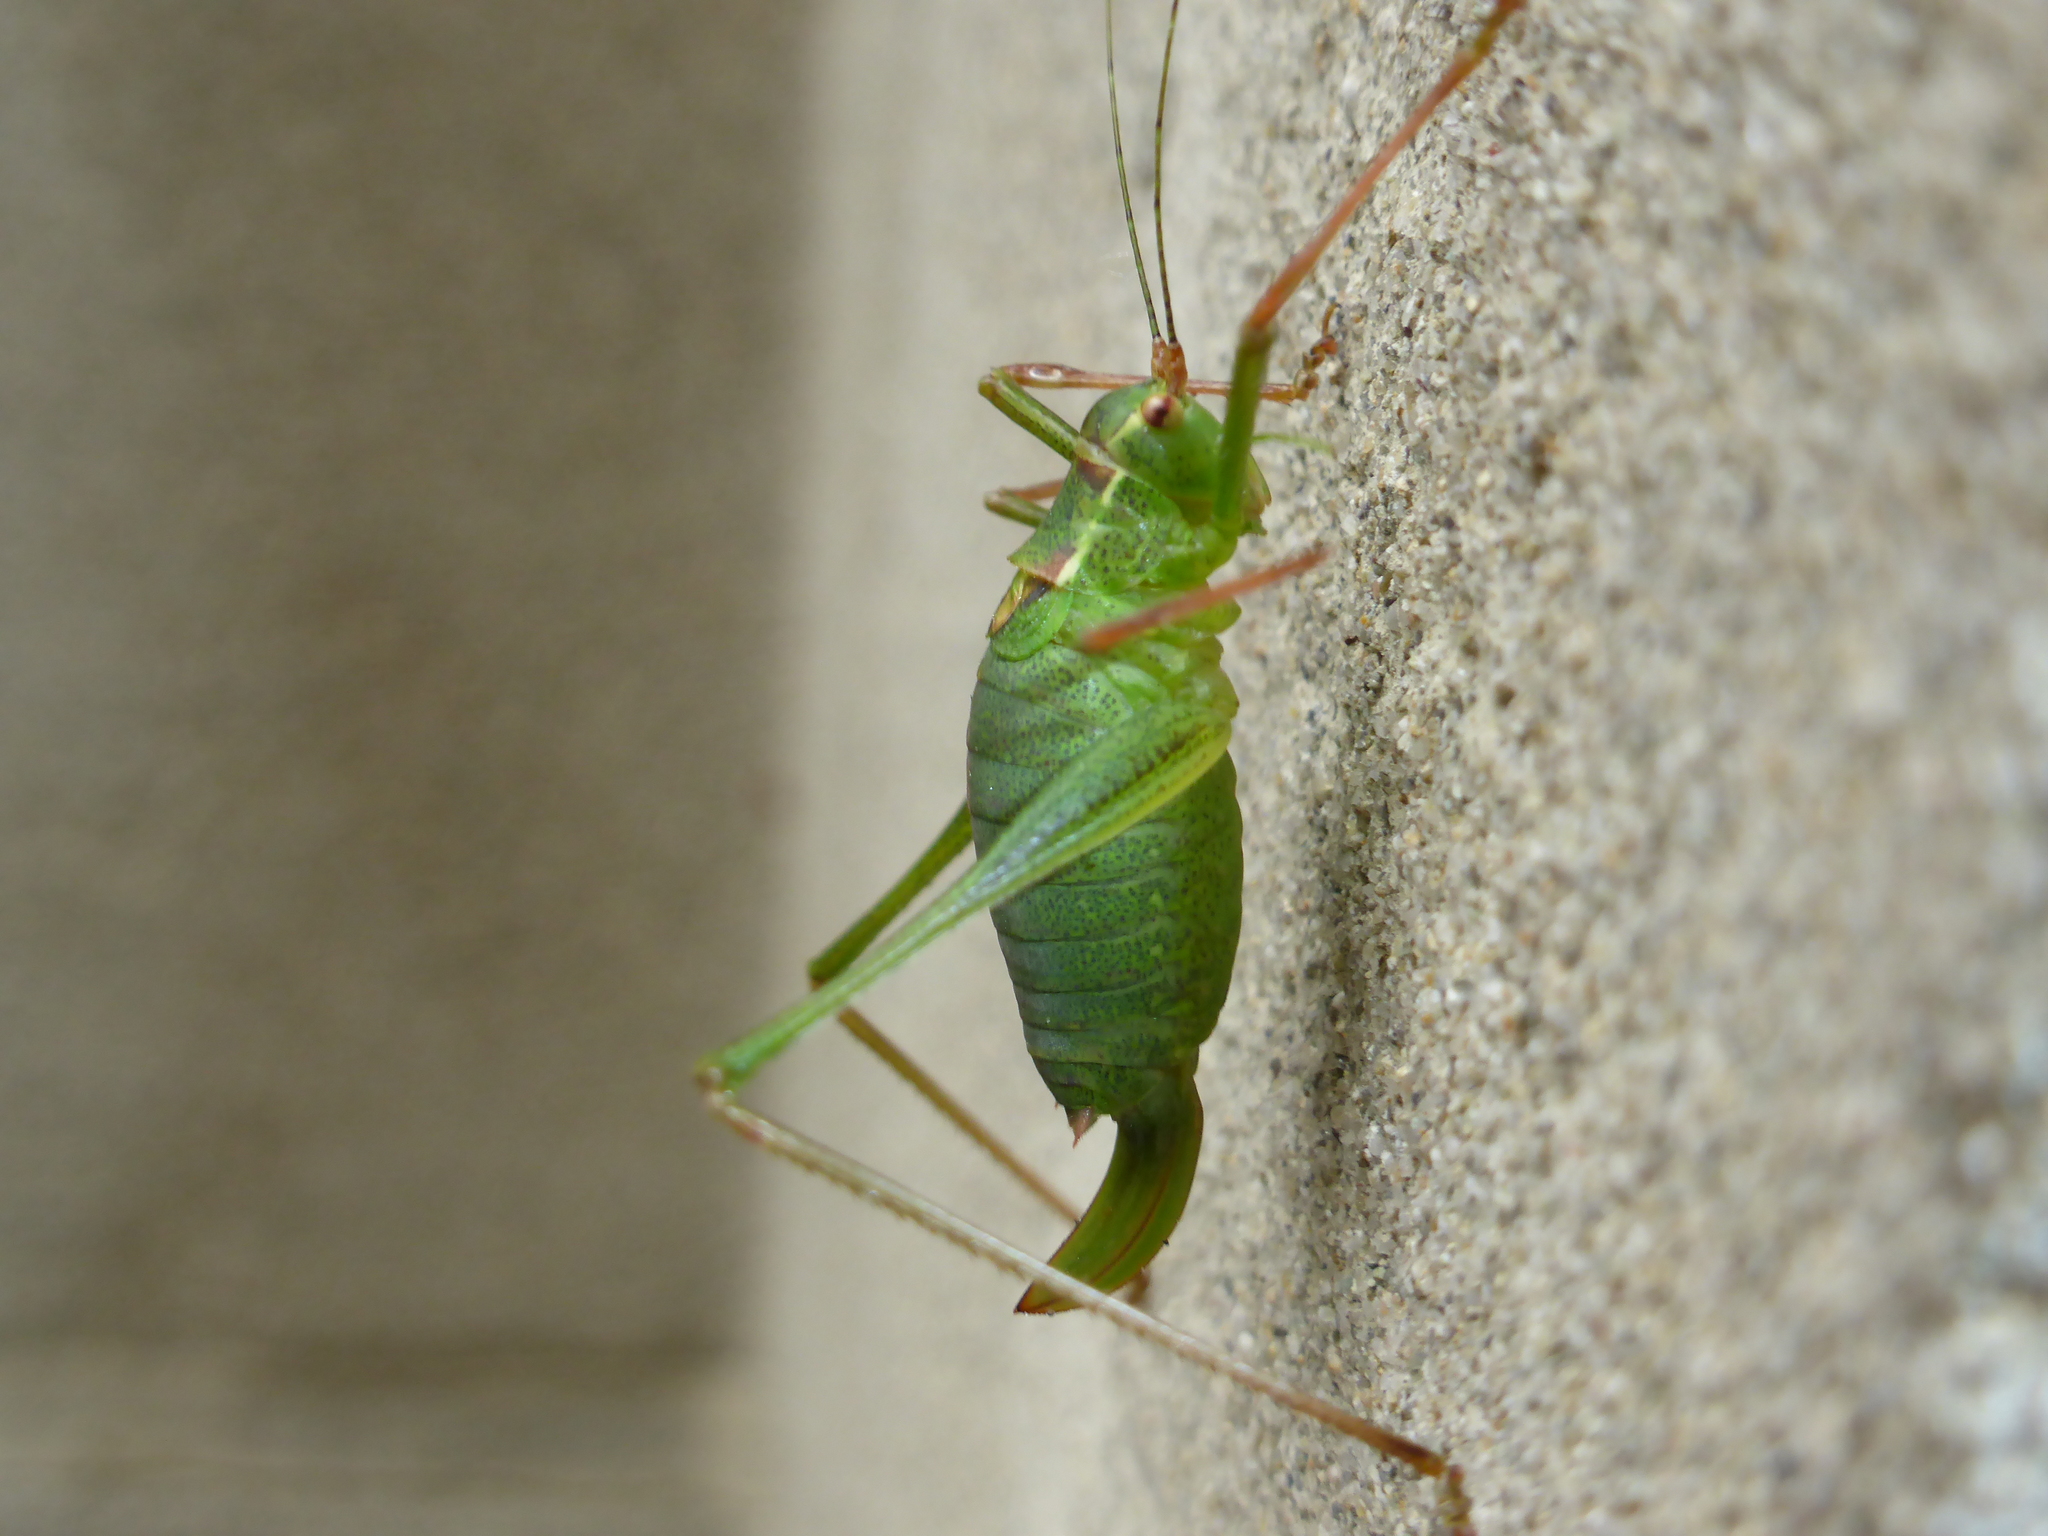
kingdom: Animalia
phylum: Arthropoda
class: Insecta
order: Orthoptera
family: Tettigoniidae
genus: Leptophyes
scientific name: Leptophyes punctatissima
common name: Speckled bush-cricket
